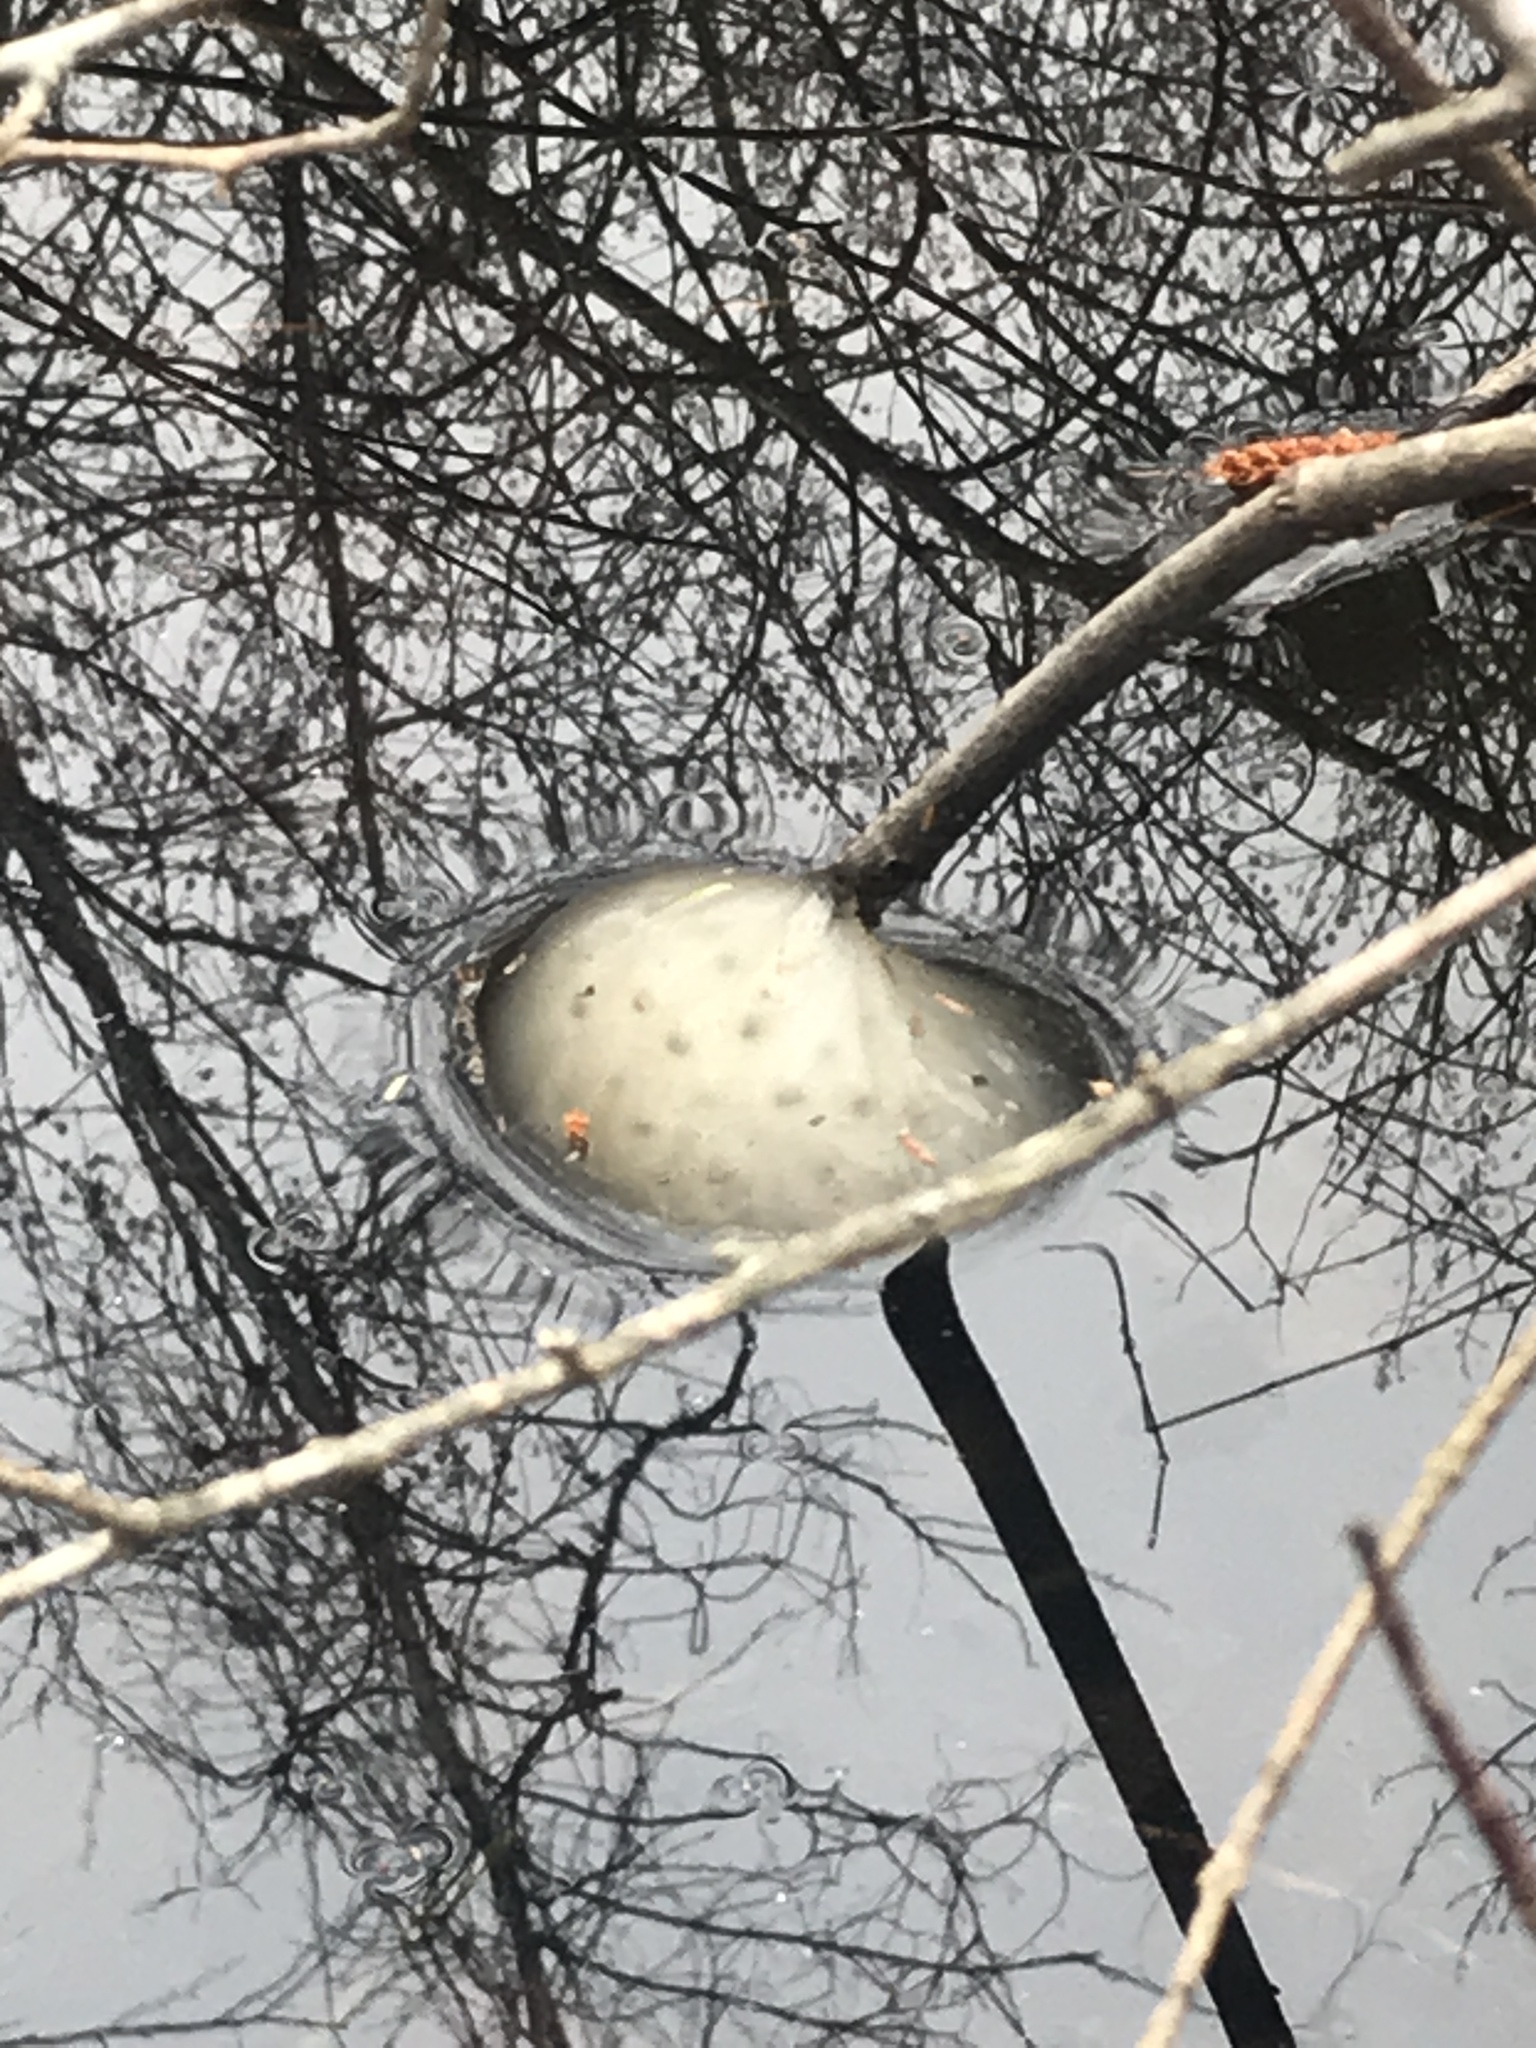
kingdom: Animalia
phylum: Chordata
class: Amphibia
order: Caudata
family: Ambystomatidae
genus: Ambystoma
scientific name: Ambystoma maculatum
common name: Spotted salamander
